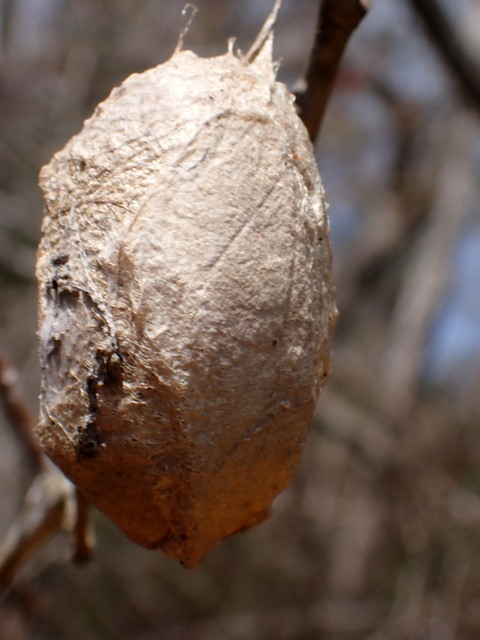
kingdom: Animalia
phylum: Arthropoda
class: Insecta
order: Lepidoptera
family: Saturniidae
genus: Antheraea
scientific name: Antheraea polyphemus
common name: Polyphemus moth
